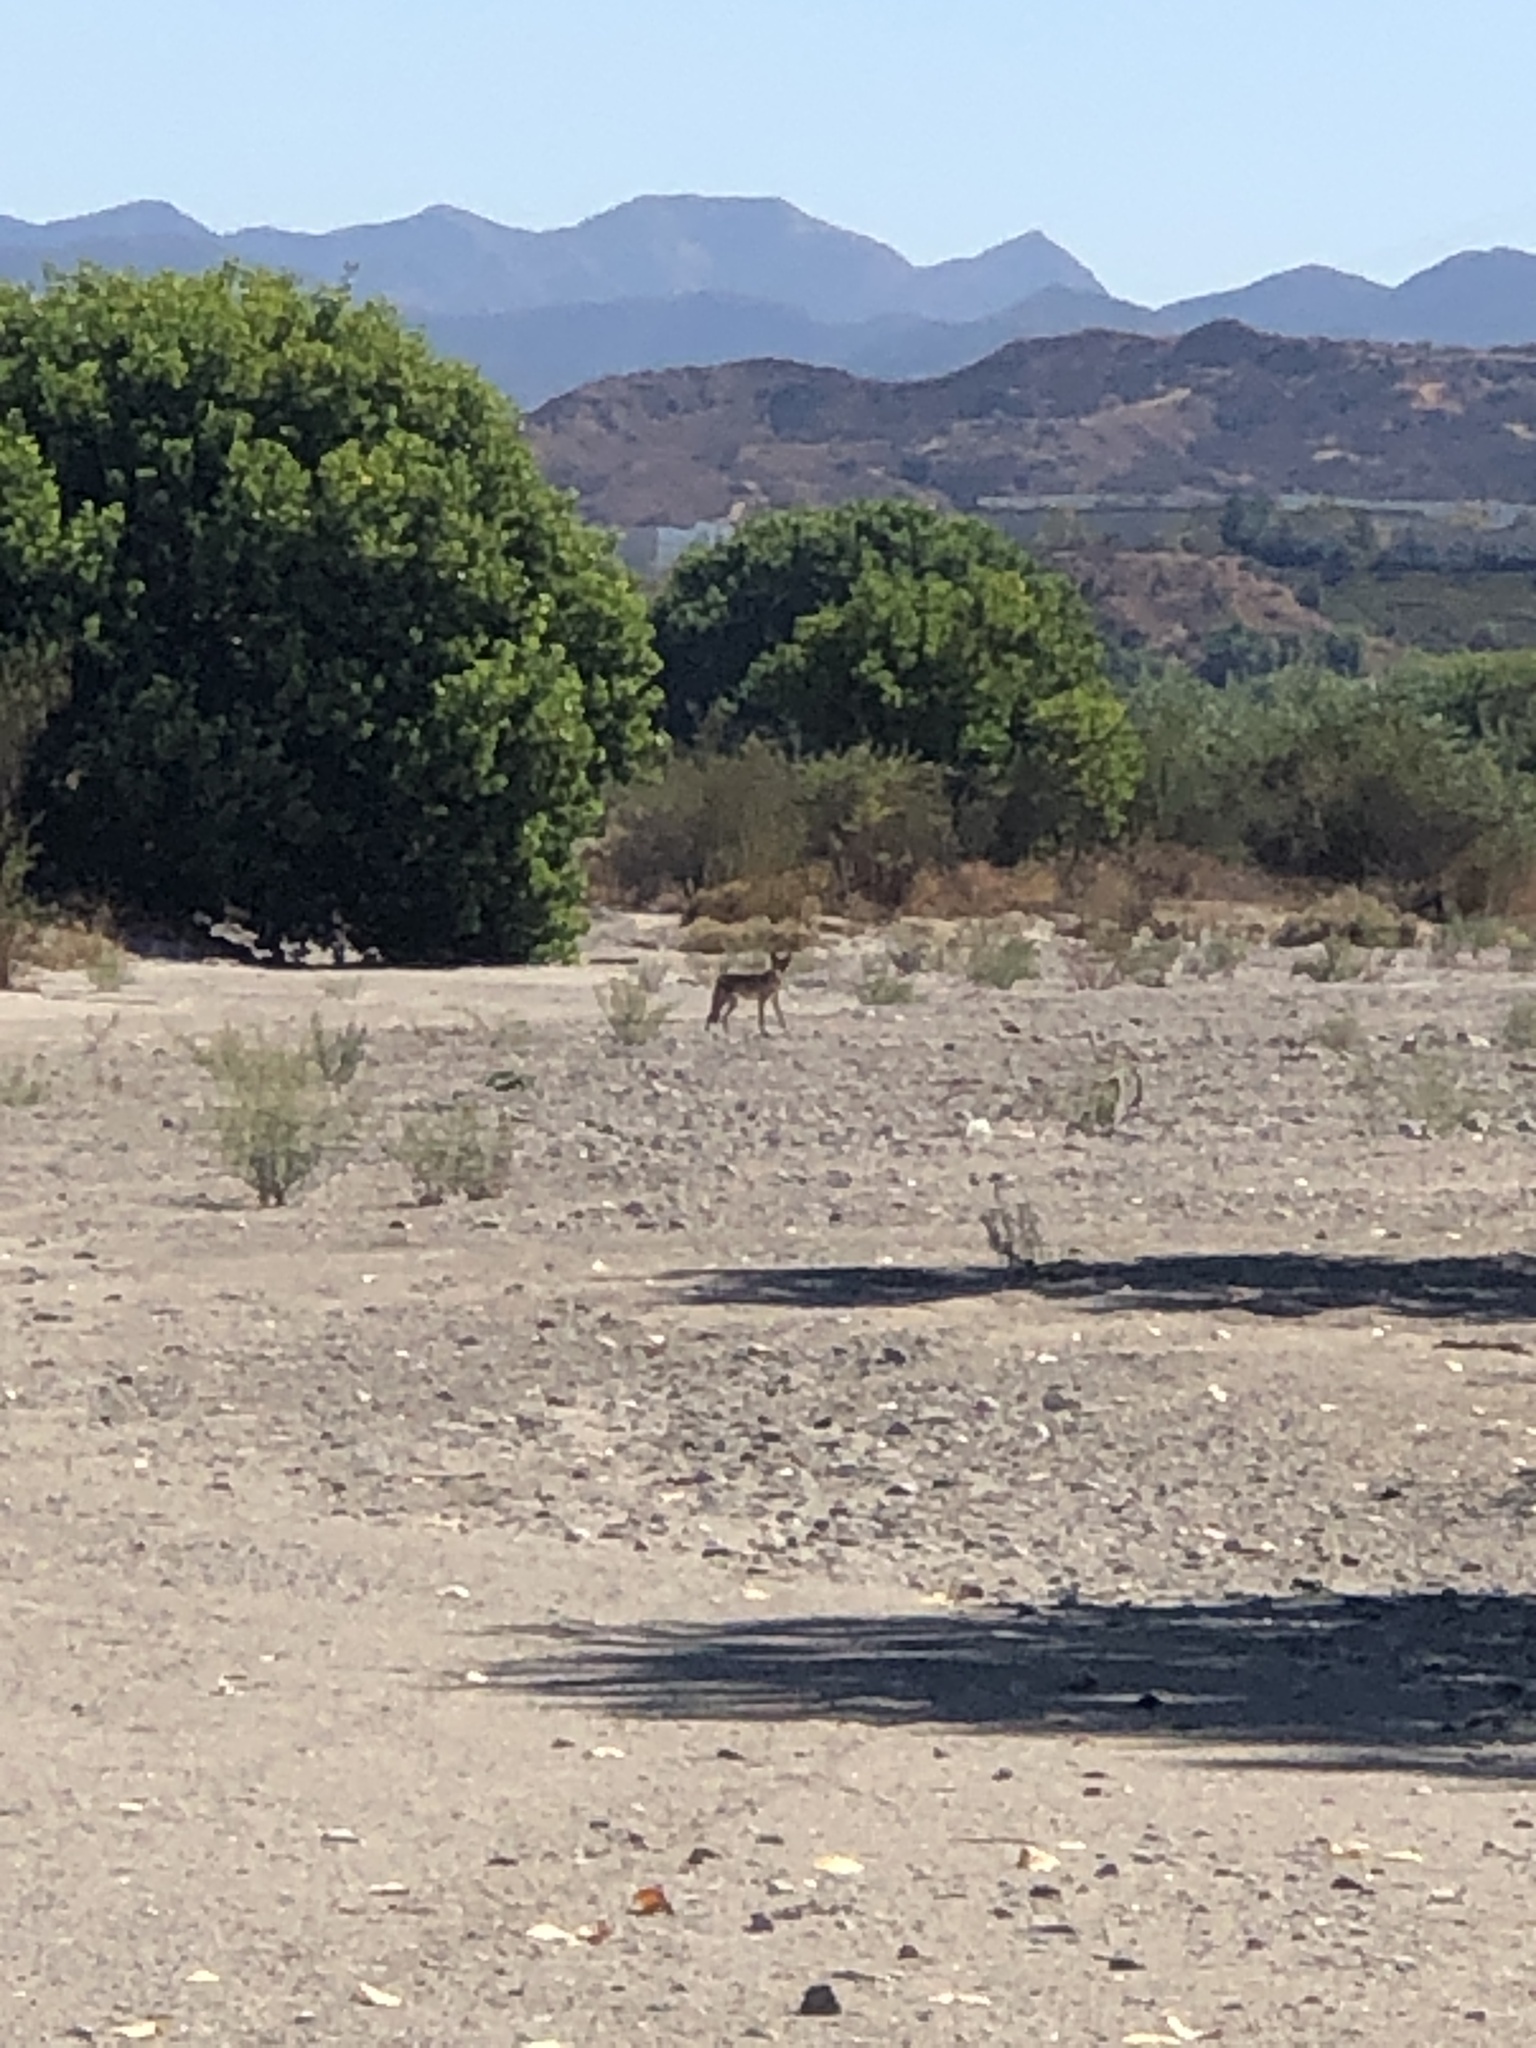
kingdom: Animalia
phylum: Chordata
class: Mammalia
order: Carnivora
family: Canidae
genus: Canis
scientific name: Canis latrans
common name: Coyote
